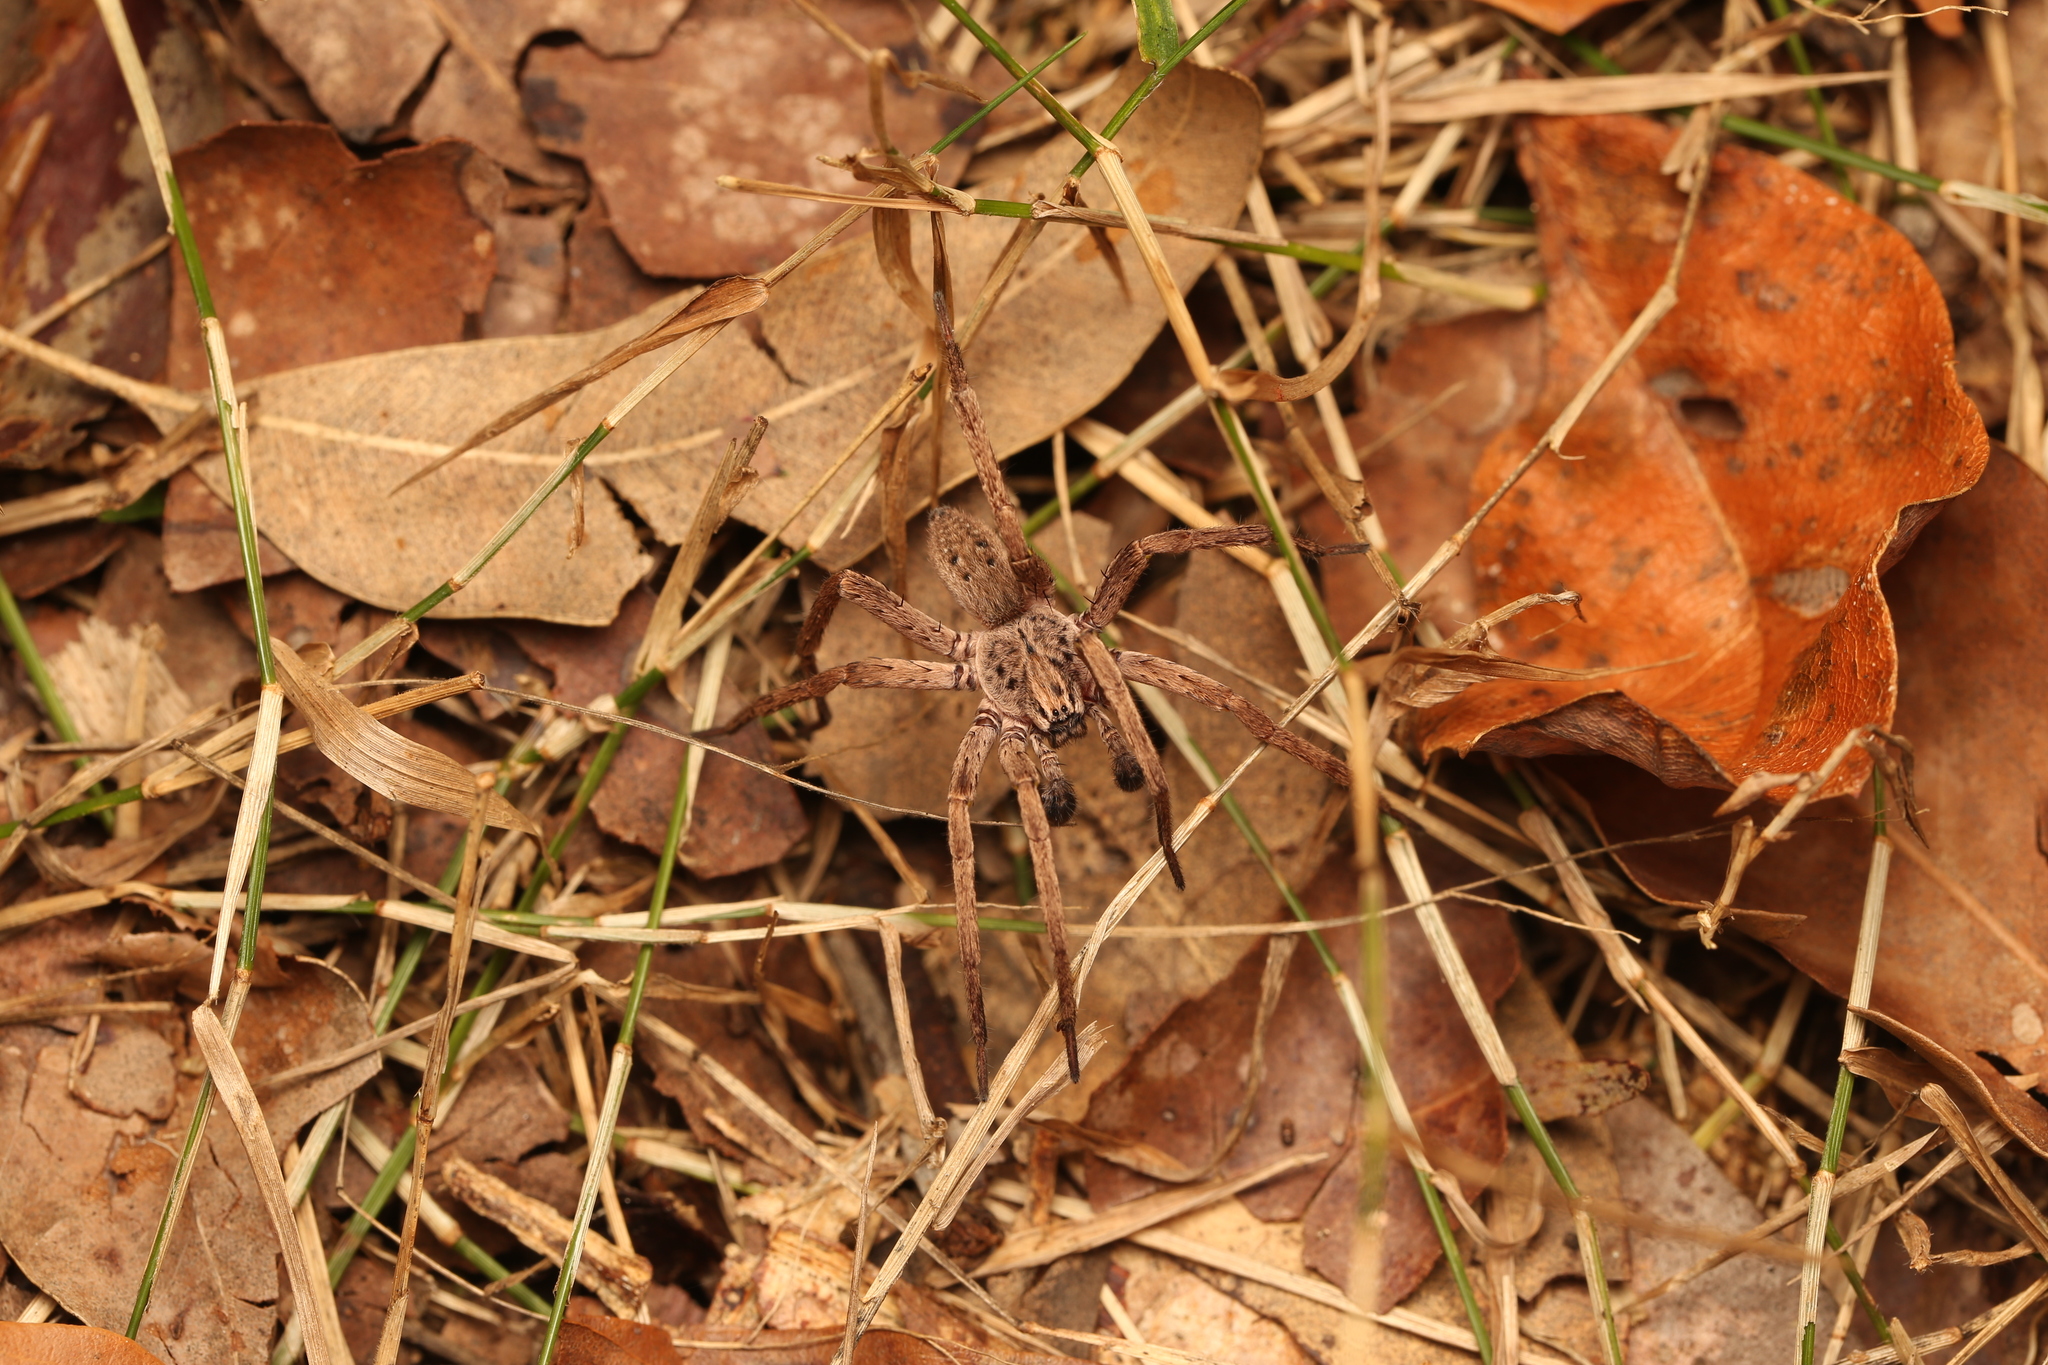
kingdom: Animalia
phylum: Arthropoda
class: Arachnida
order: Araneae
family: Miturgidae
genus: Mituliodon
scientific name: Mituliodon tarantulinus
